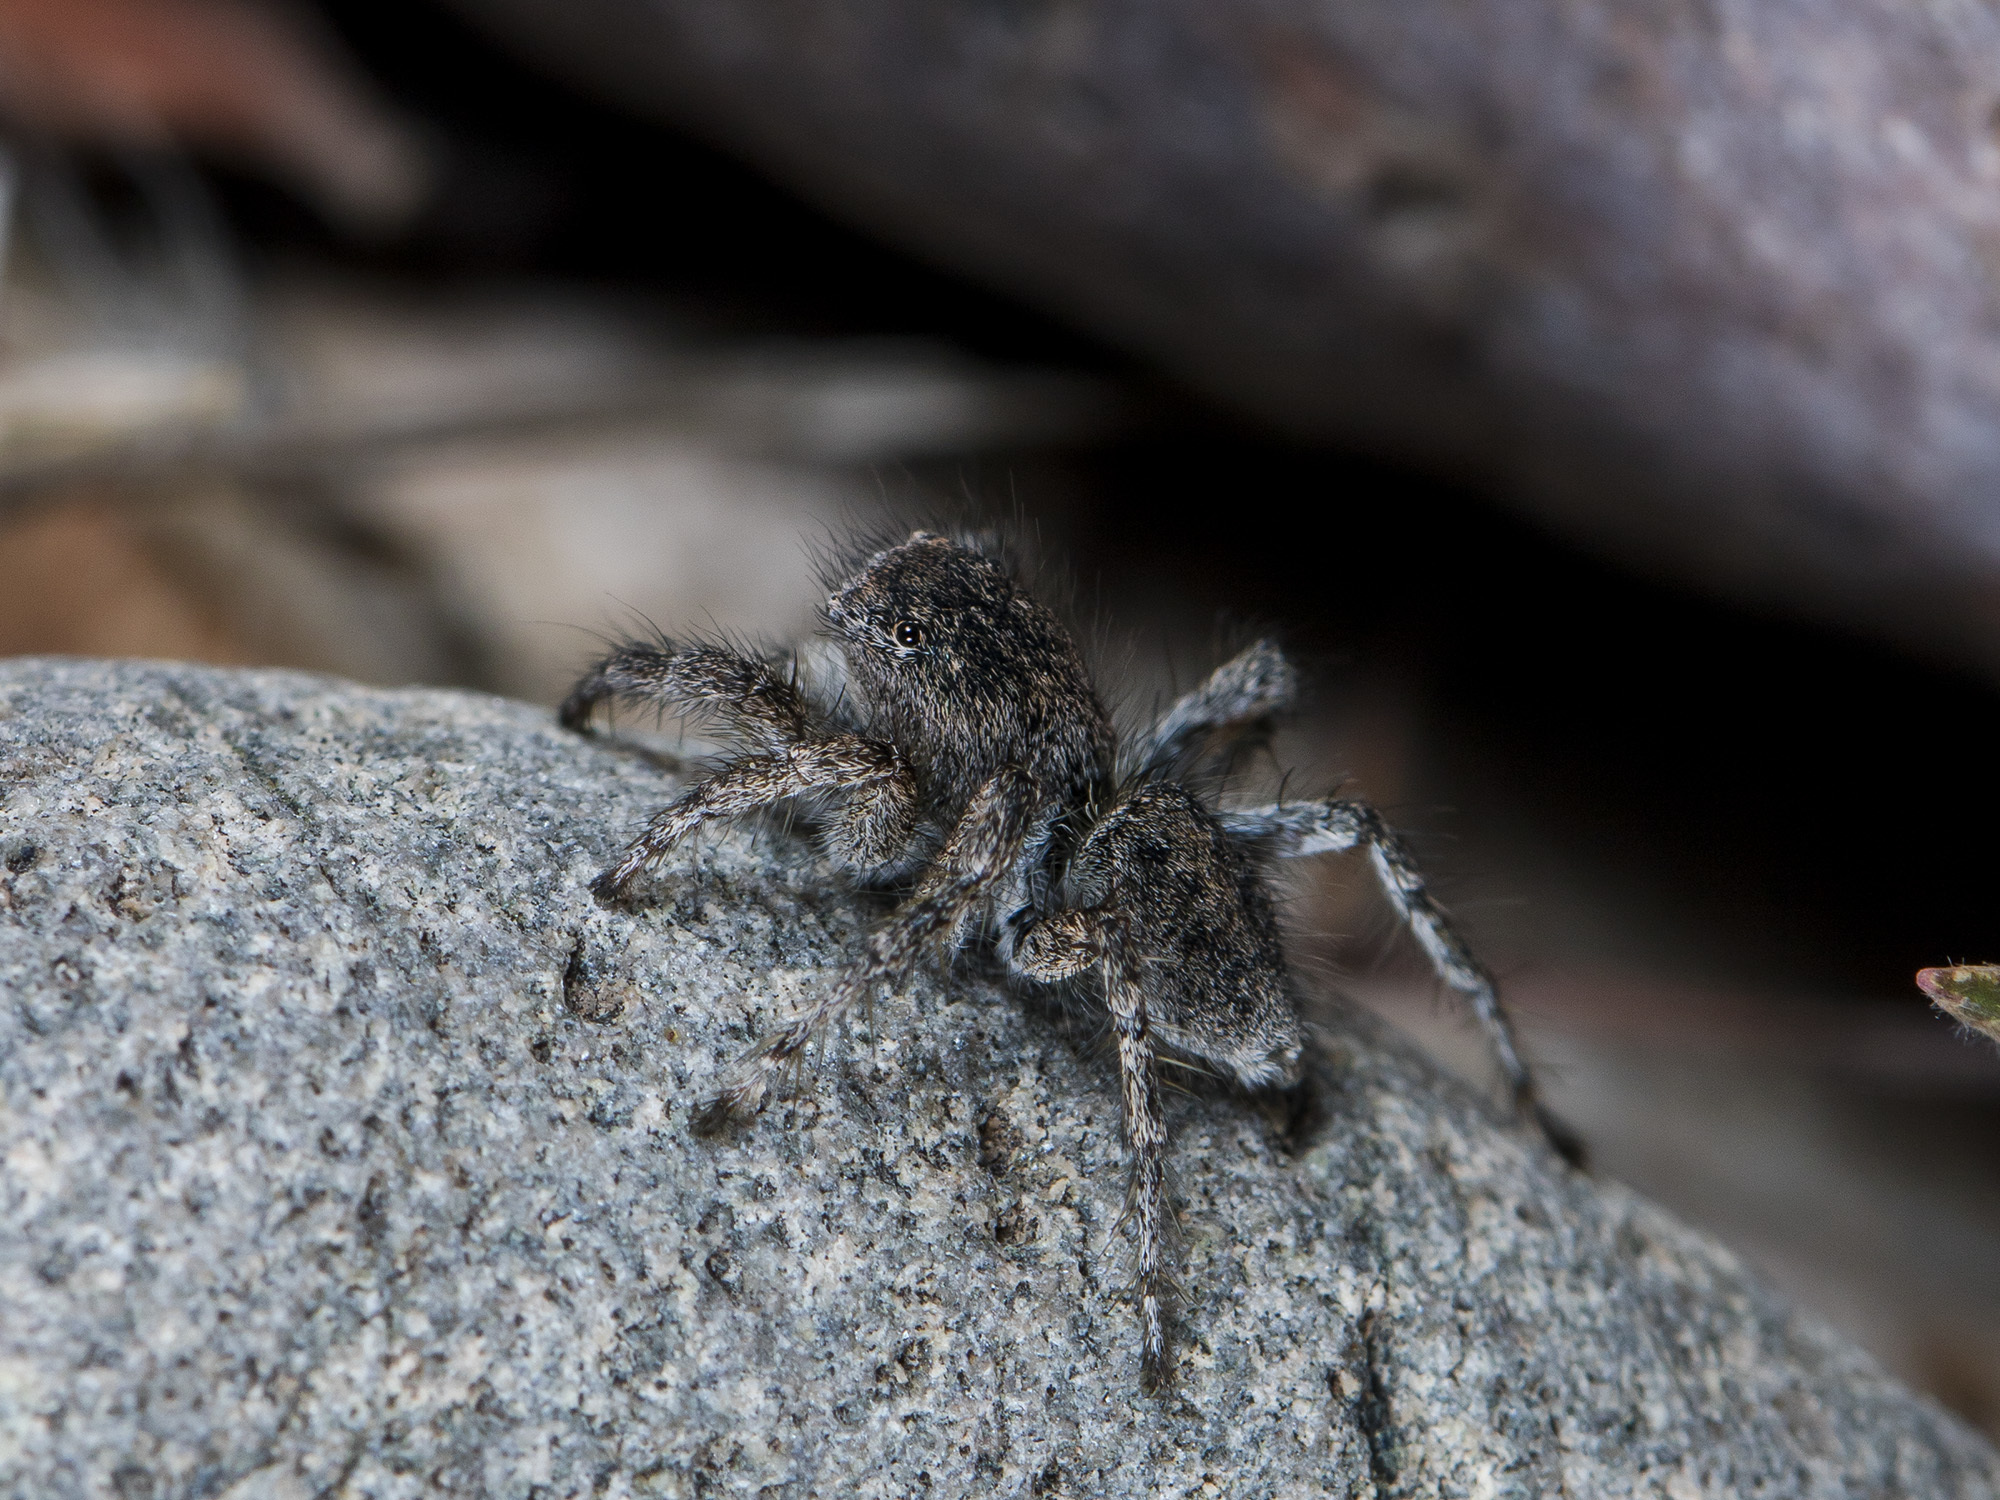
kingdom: Animalia
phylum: Arthropoda
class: Arachnida
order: Araneae
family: Salticidae
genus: Aelurillus
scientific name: Aelurillus dubatolovi
